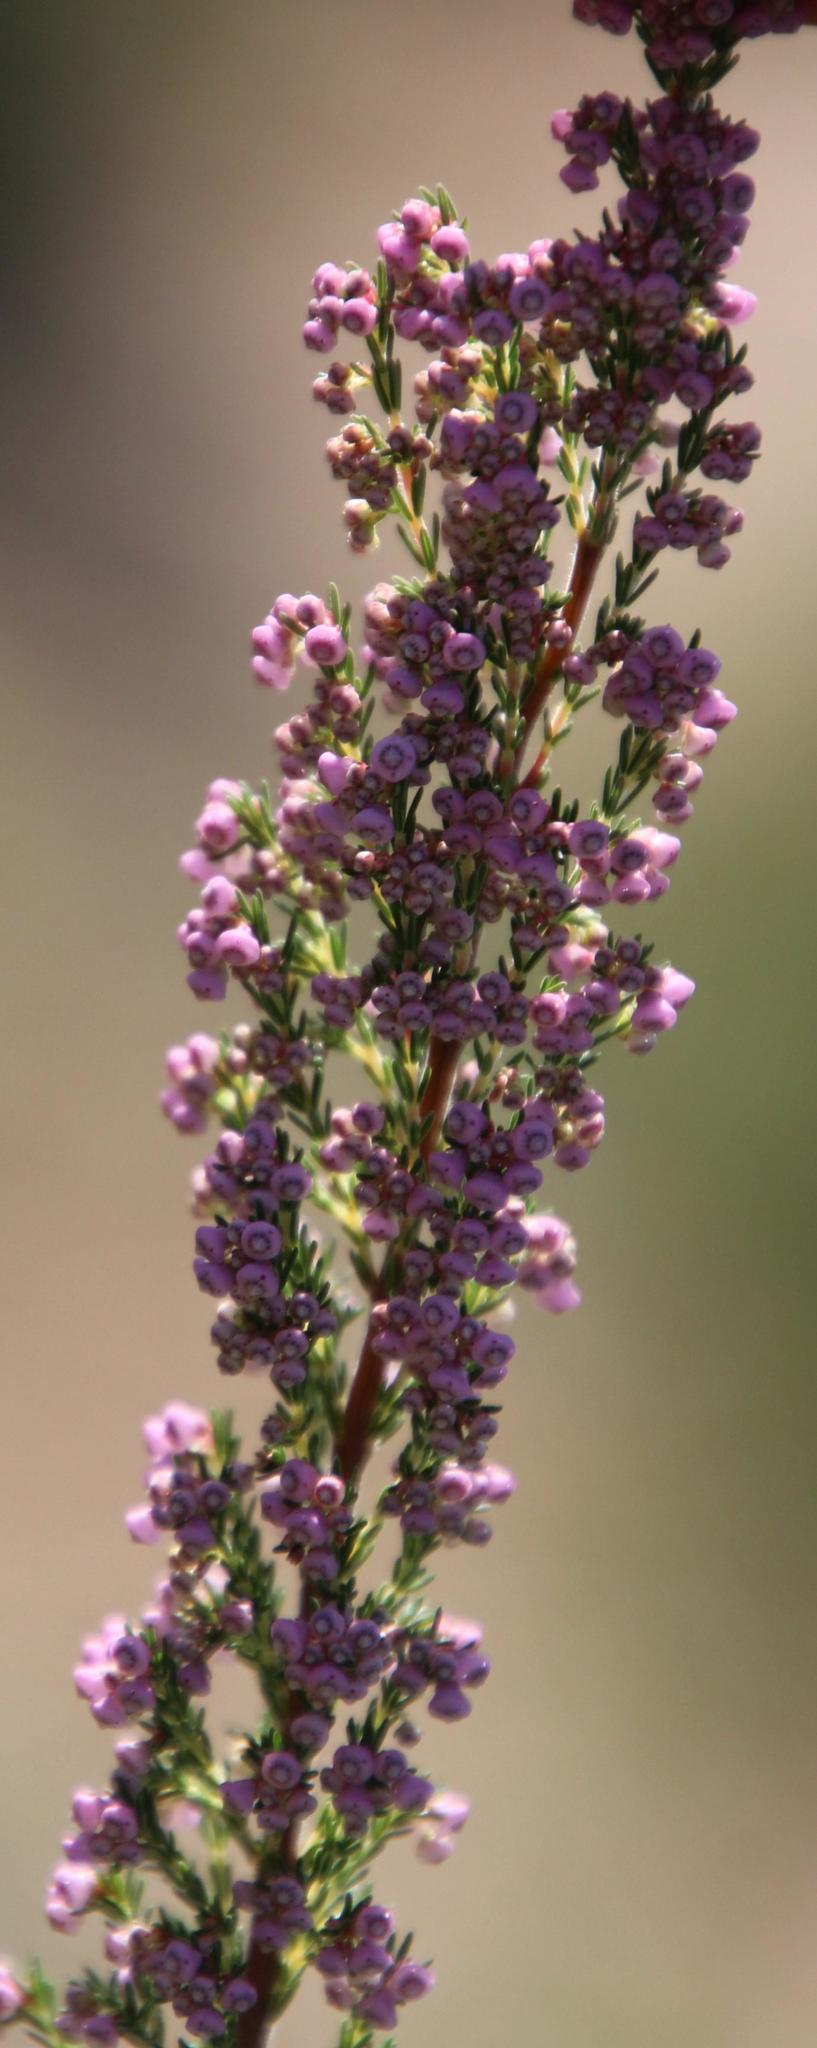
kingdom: Plantae
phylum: Tracheophyta
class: Magnoliopsida
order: Ericales
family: Ericaceae
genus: Erica
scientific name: Erica mauritanica
